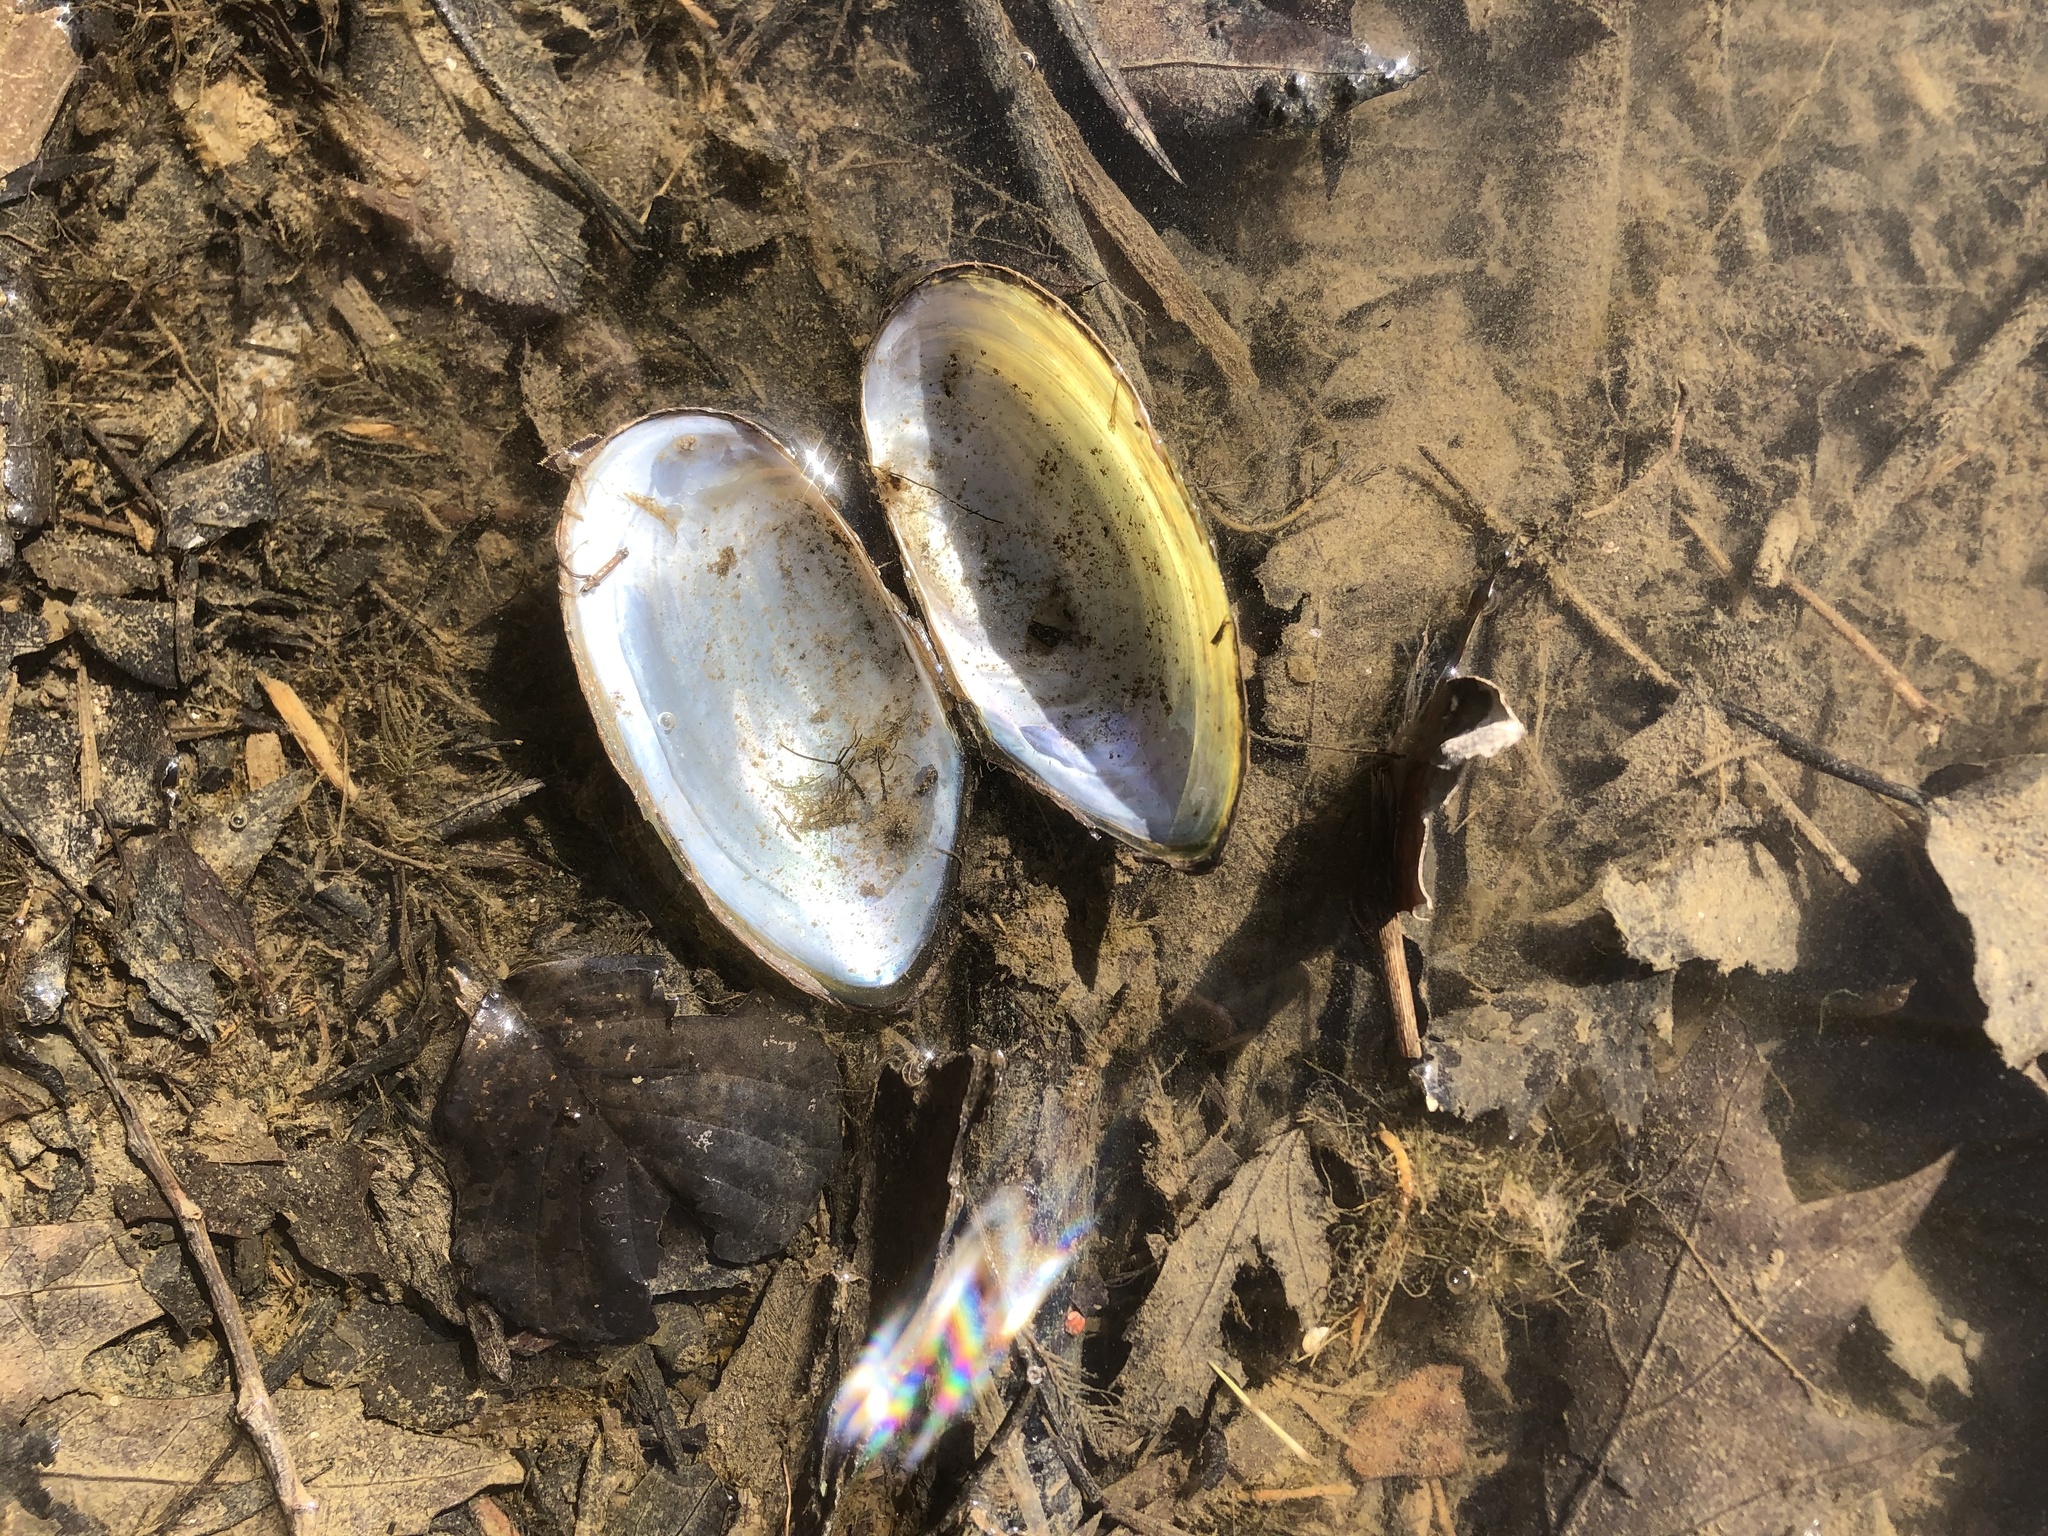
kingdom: Animalia
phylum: Mollusca
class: Bivalvia
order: Unionida
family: Unionidae
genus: Utterbackia
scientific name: Utterbackia imbecillis
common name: Paper pondshell
